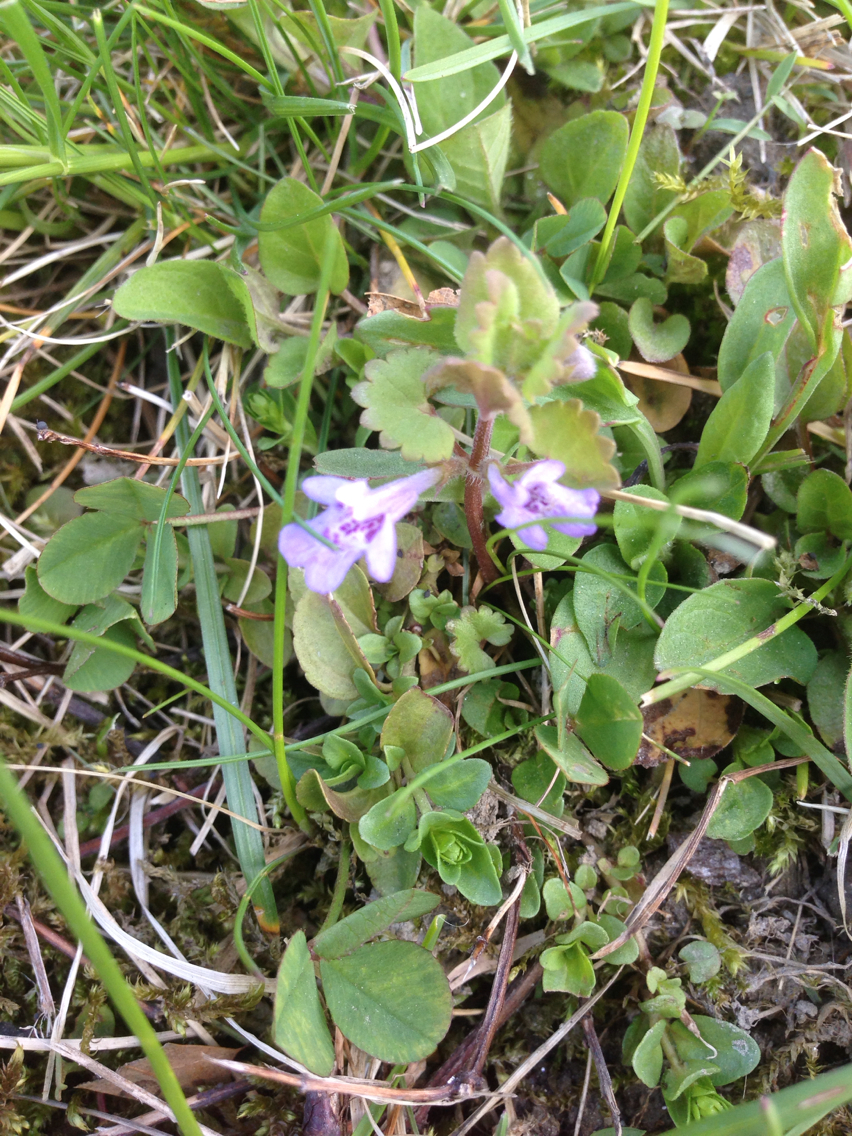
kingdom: Plantae
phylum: Tracheophyta
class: Magnoliopsida
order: Lamiales
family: Lamiaceae
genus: Glechoma
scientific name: Glechoma hederacea
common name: Ground ivy
